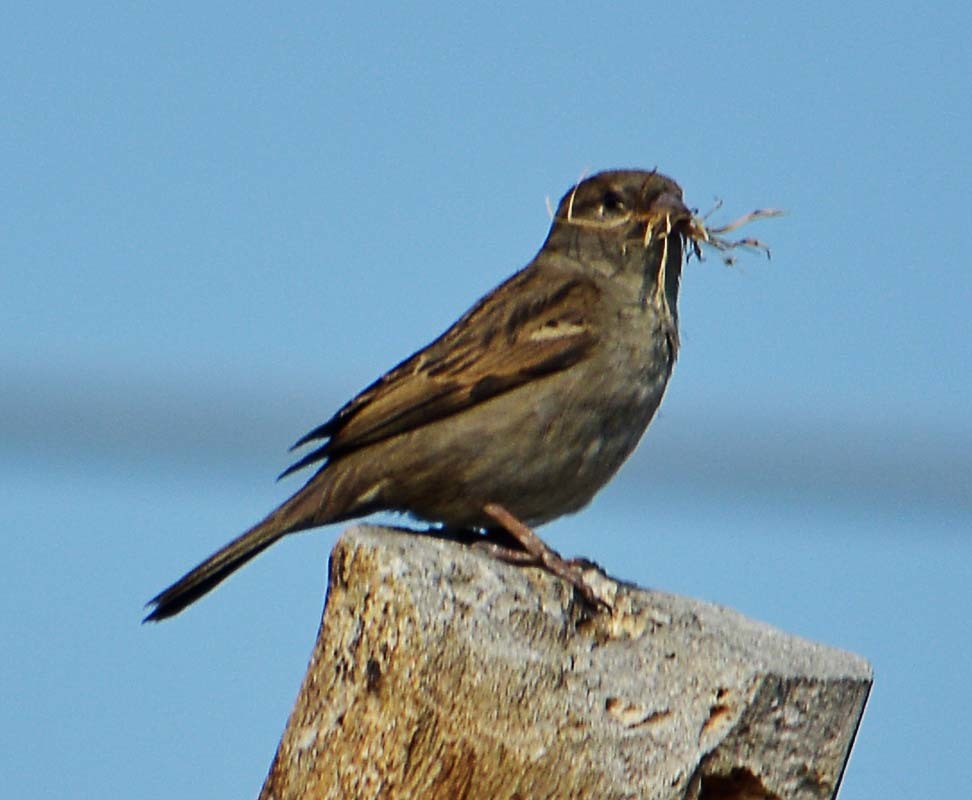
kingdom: Animalia
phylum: Chordata
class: Aves
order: Passeriformes
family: Passeridae
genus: Passer
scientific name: Passer domesticus
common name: House sparrow
